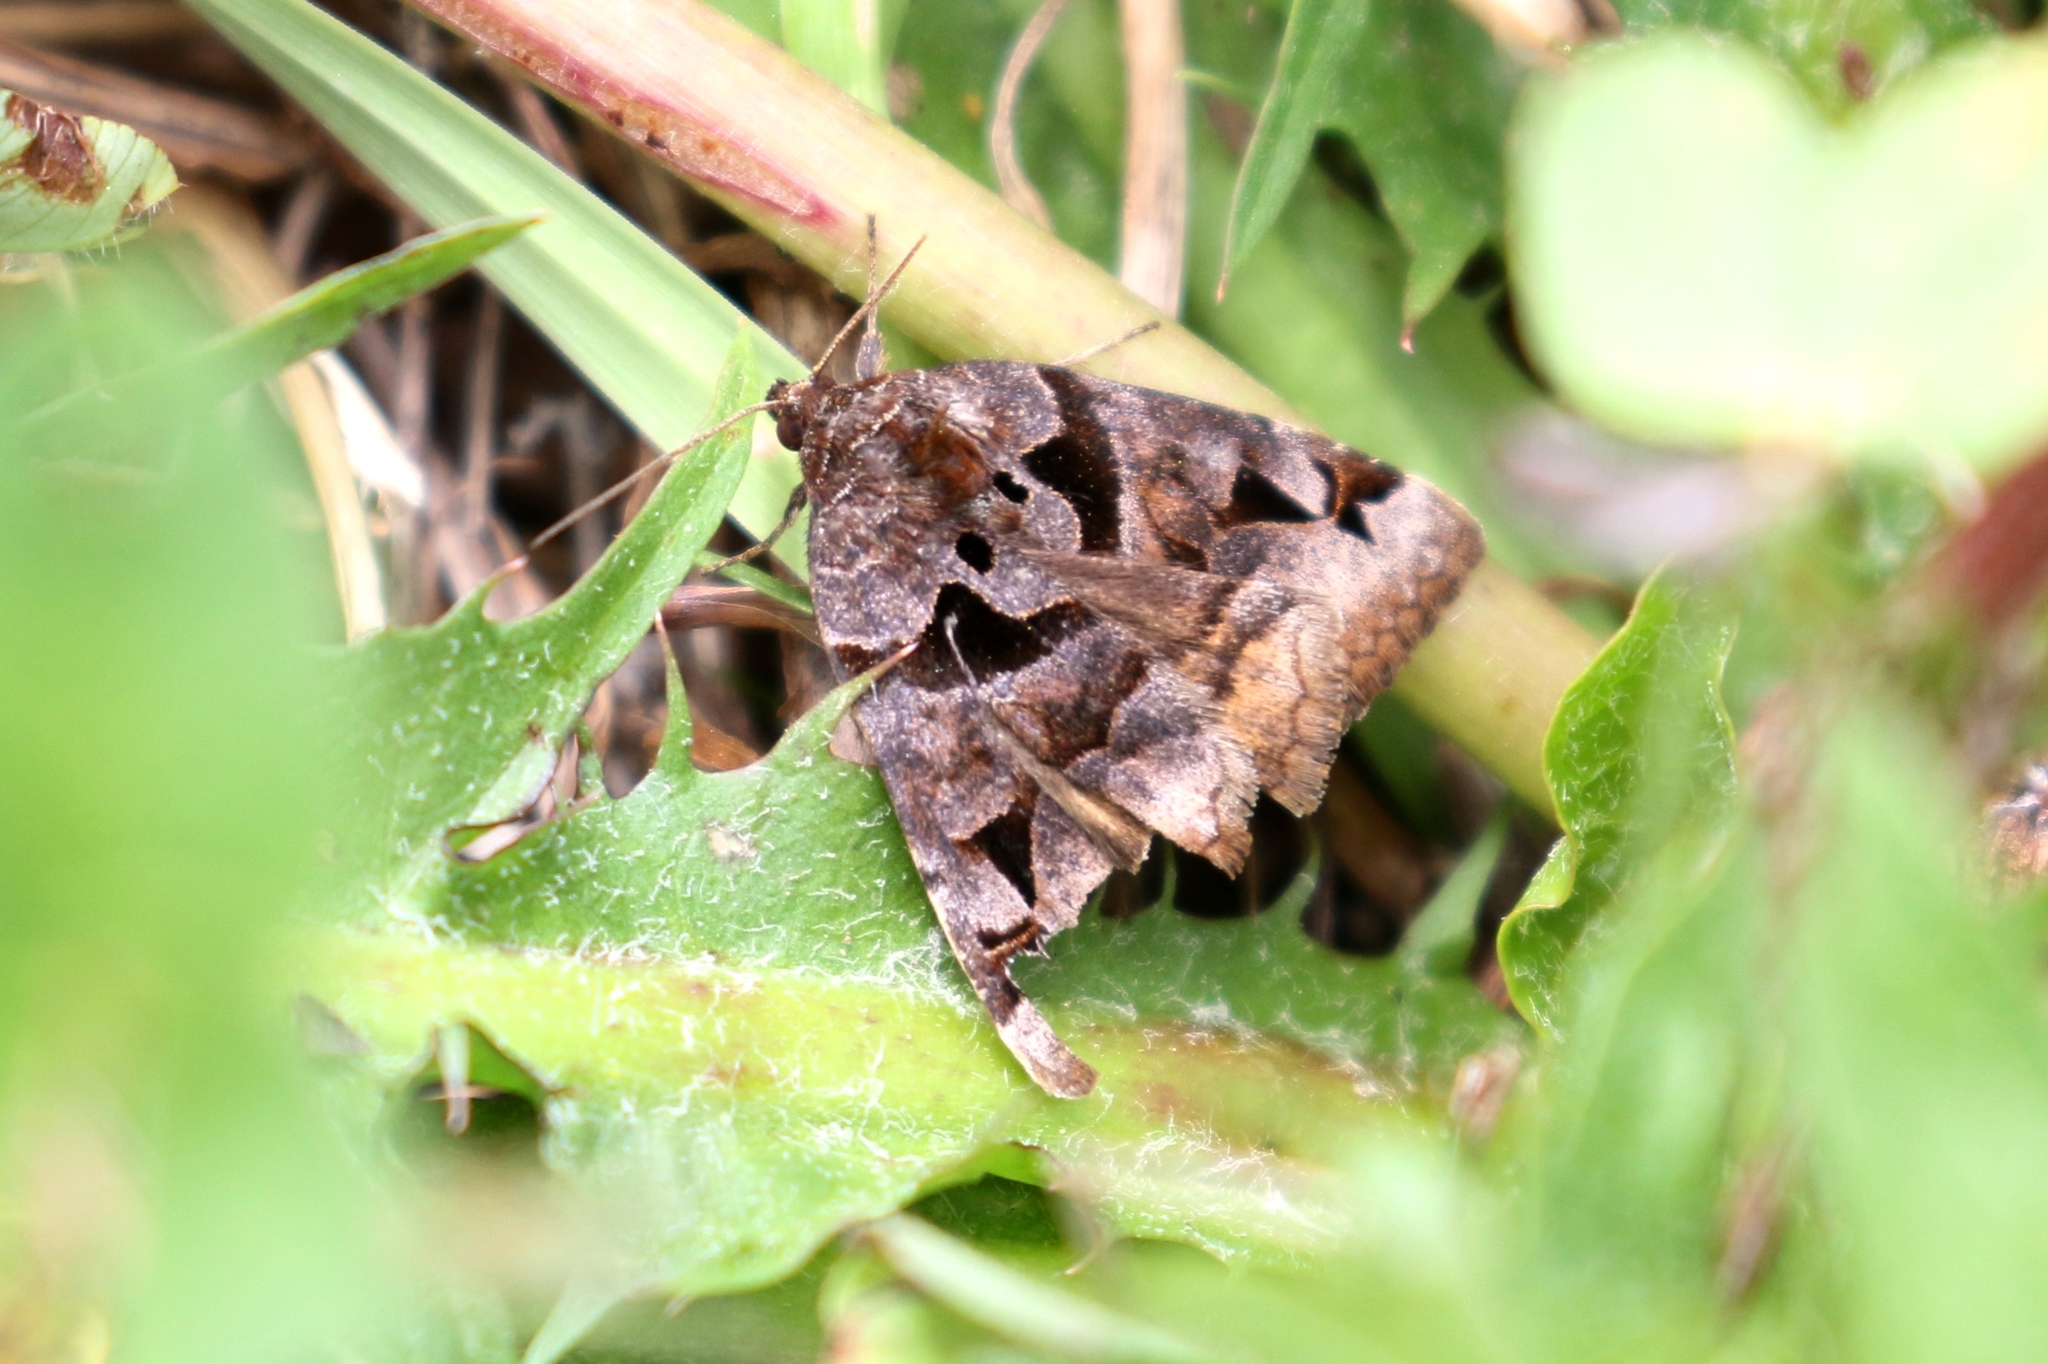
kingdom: Animalia
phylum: Arthropoda
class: Insecta
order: Lepidoptera
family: Erebidae
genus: Euclidia
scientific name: Euclidia cuspidea
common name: Toothed somberwing
